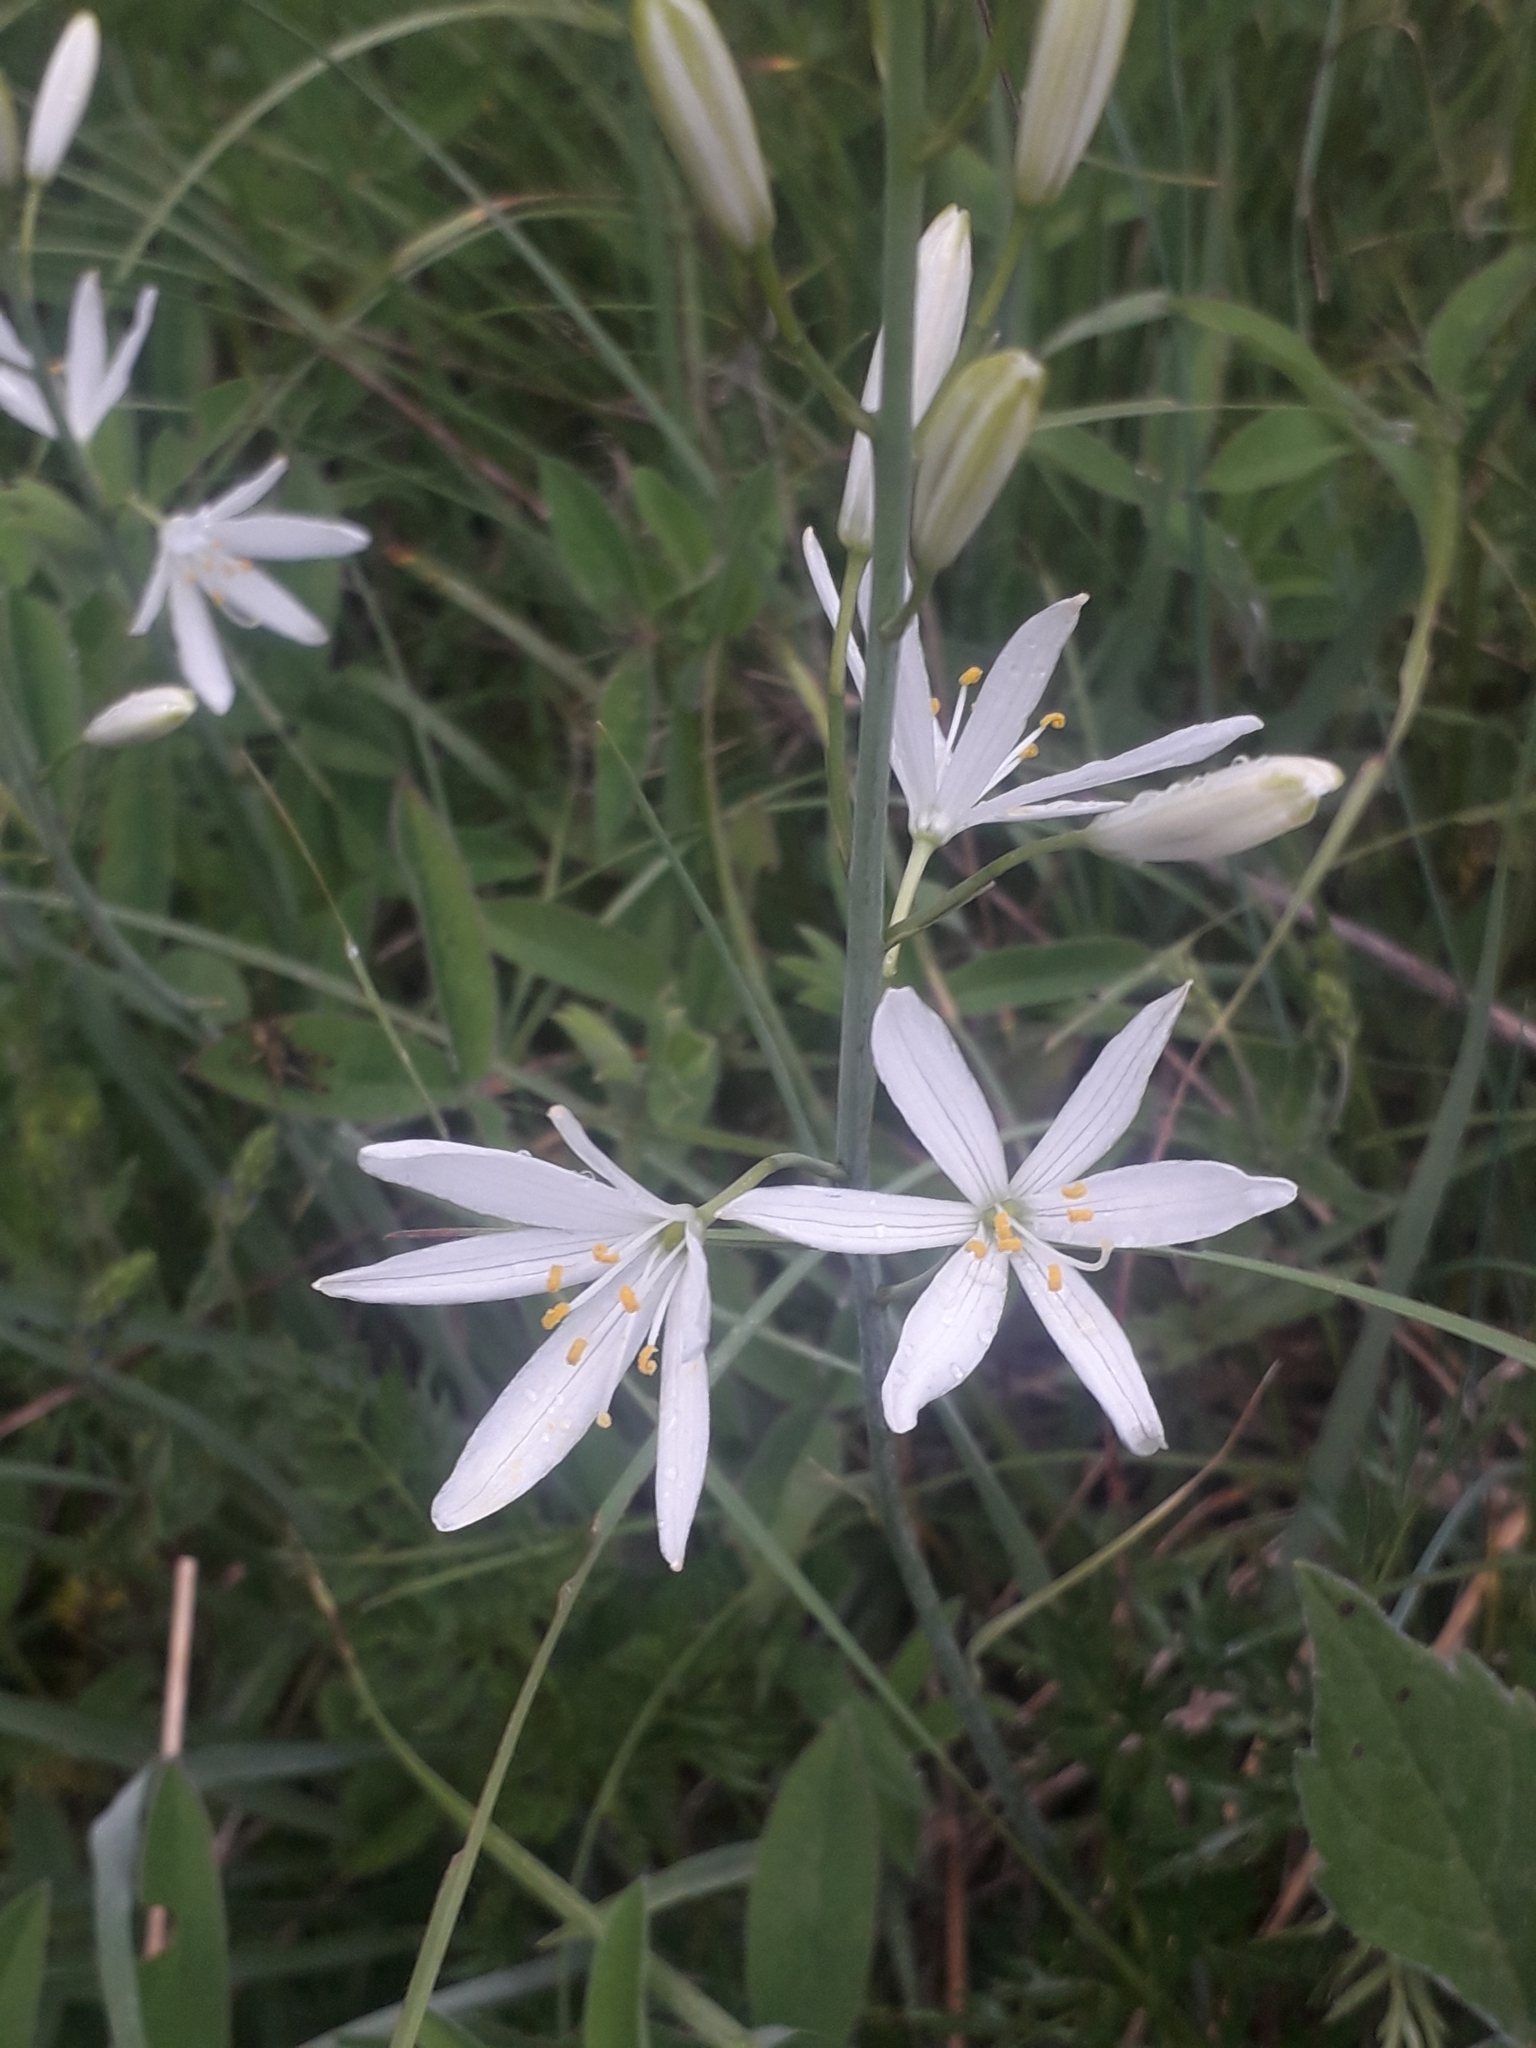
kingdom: Plantae
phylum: Tracheophyta
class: Liliopsida
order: Asparagales
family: Asparagaceae
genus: Anthericum
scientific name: Anthericum liliago
